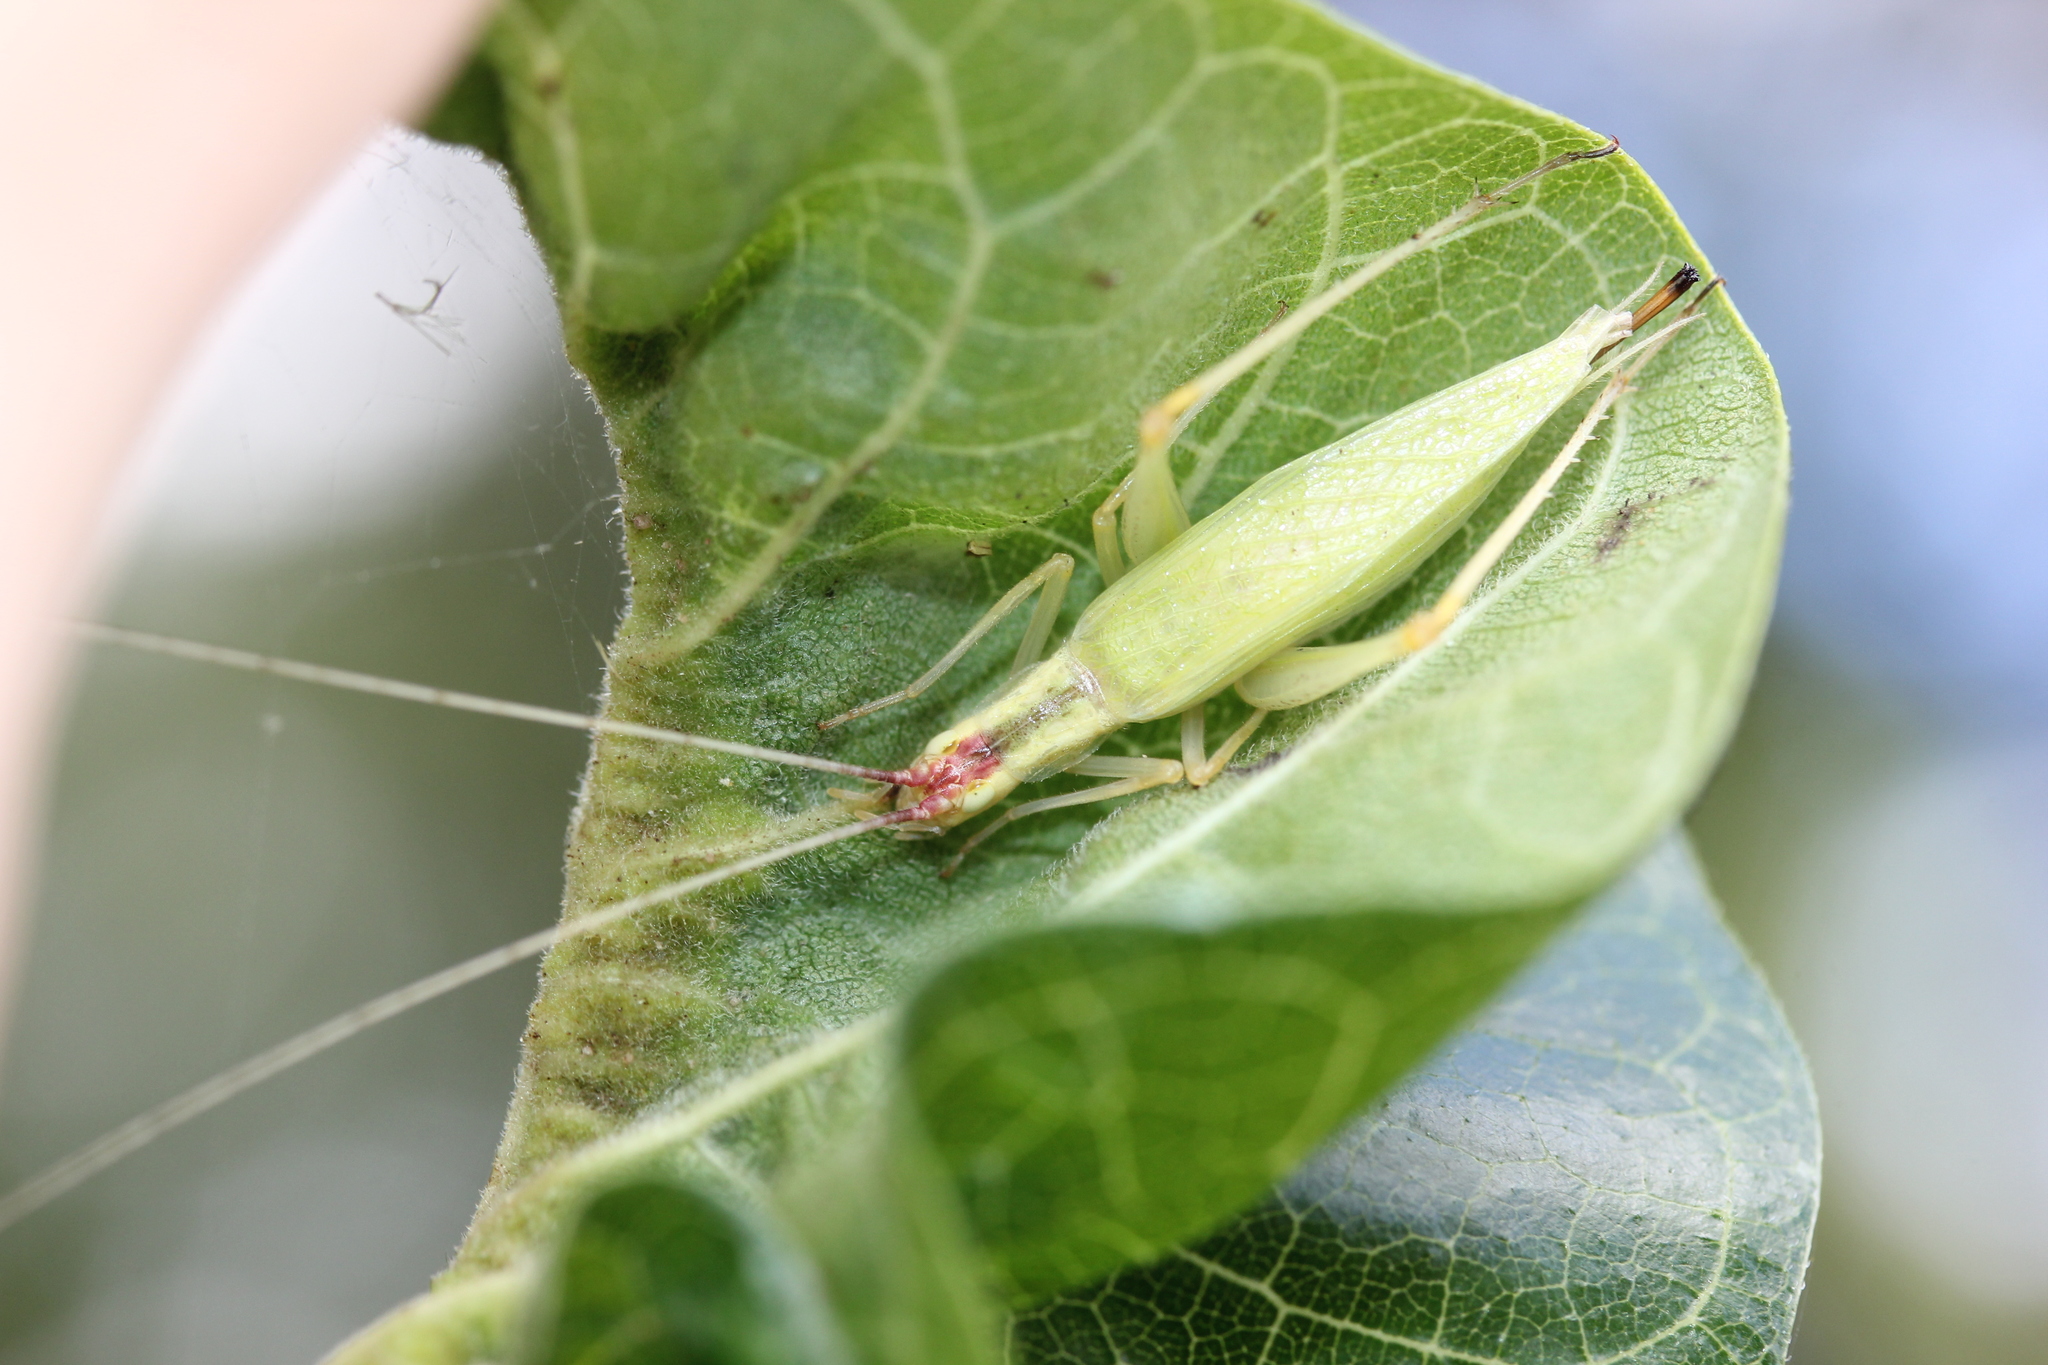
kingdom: Animalia
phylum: Arthropoda
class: Insecta
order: Orthoptera
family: Gryllidae
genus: Oecanthus
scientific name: Oecanthus latipennis
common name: Broad-winged tree cricket
